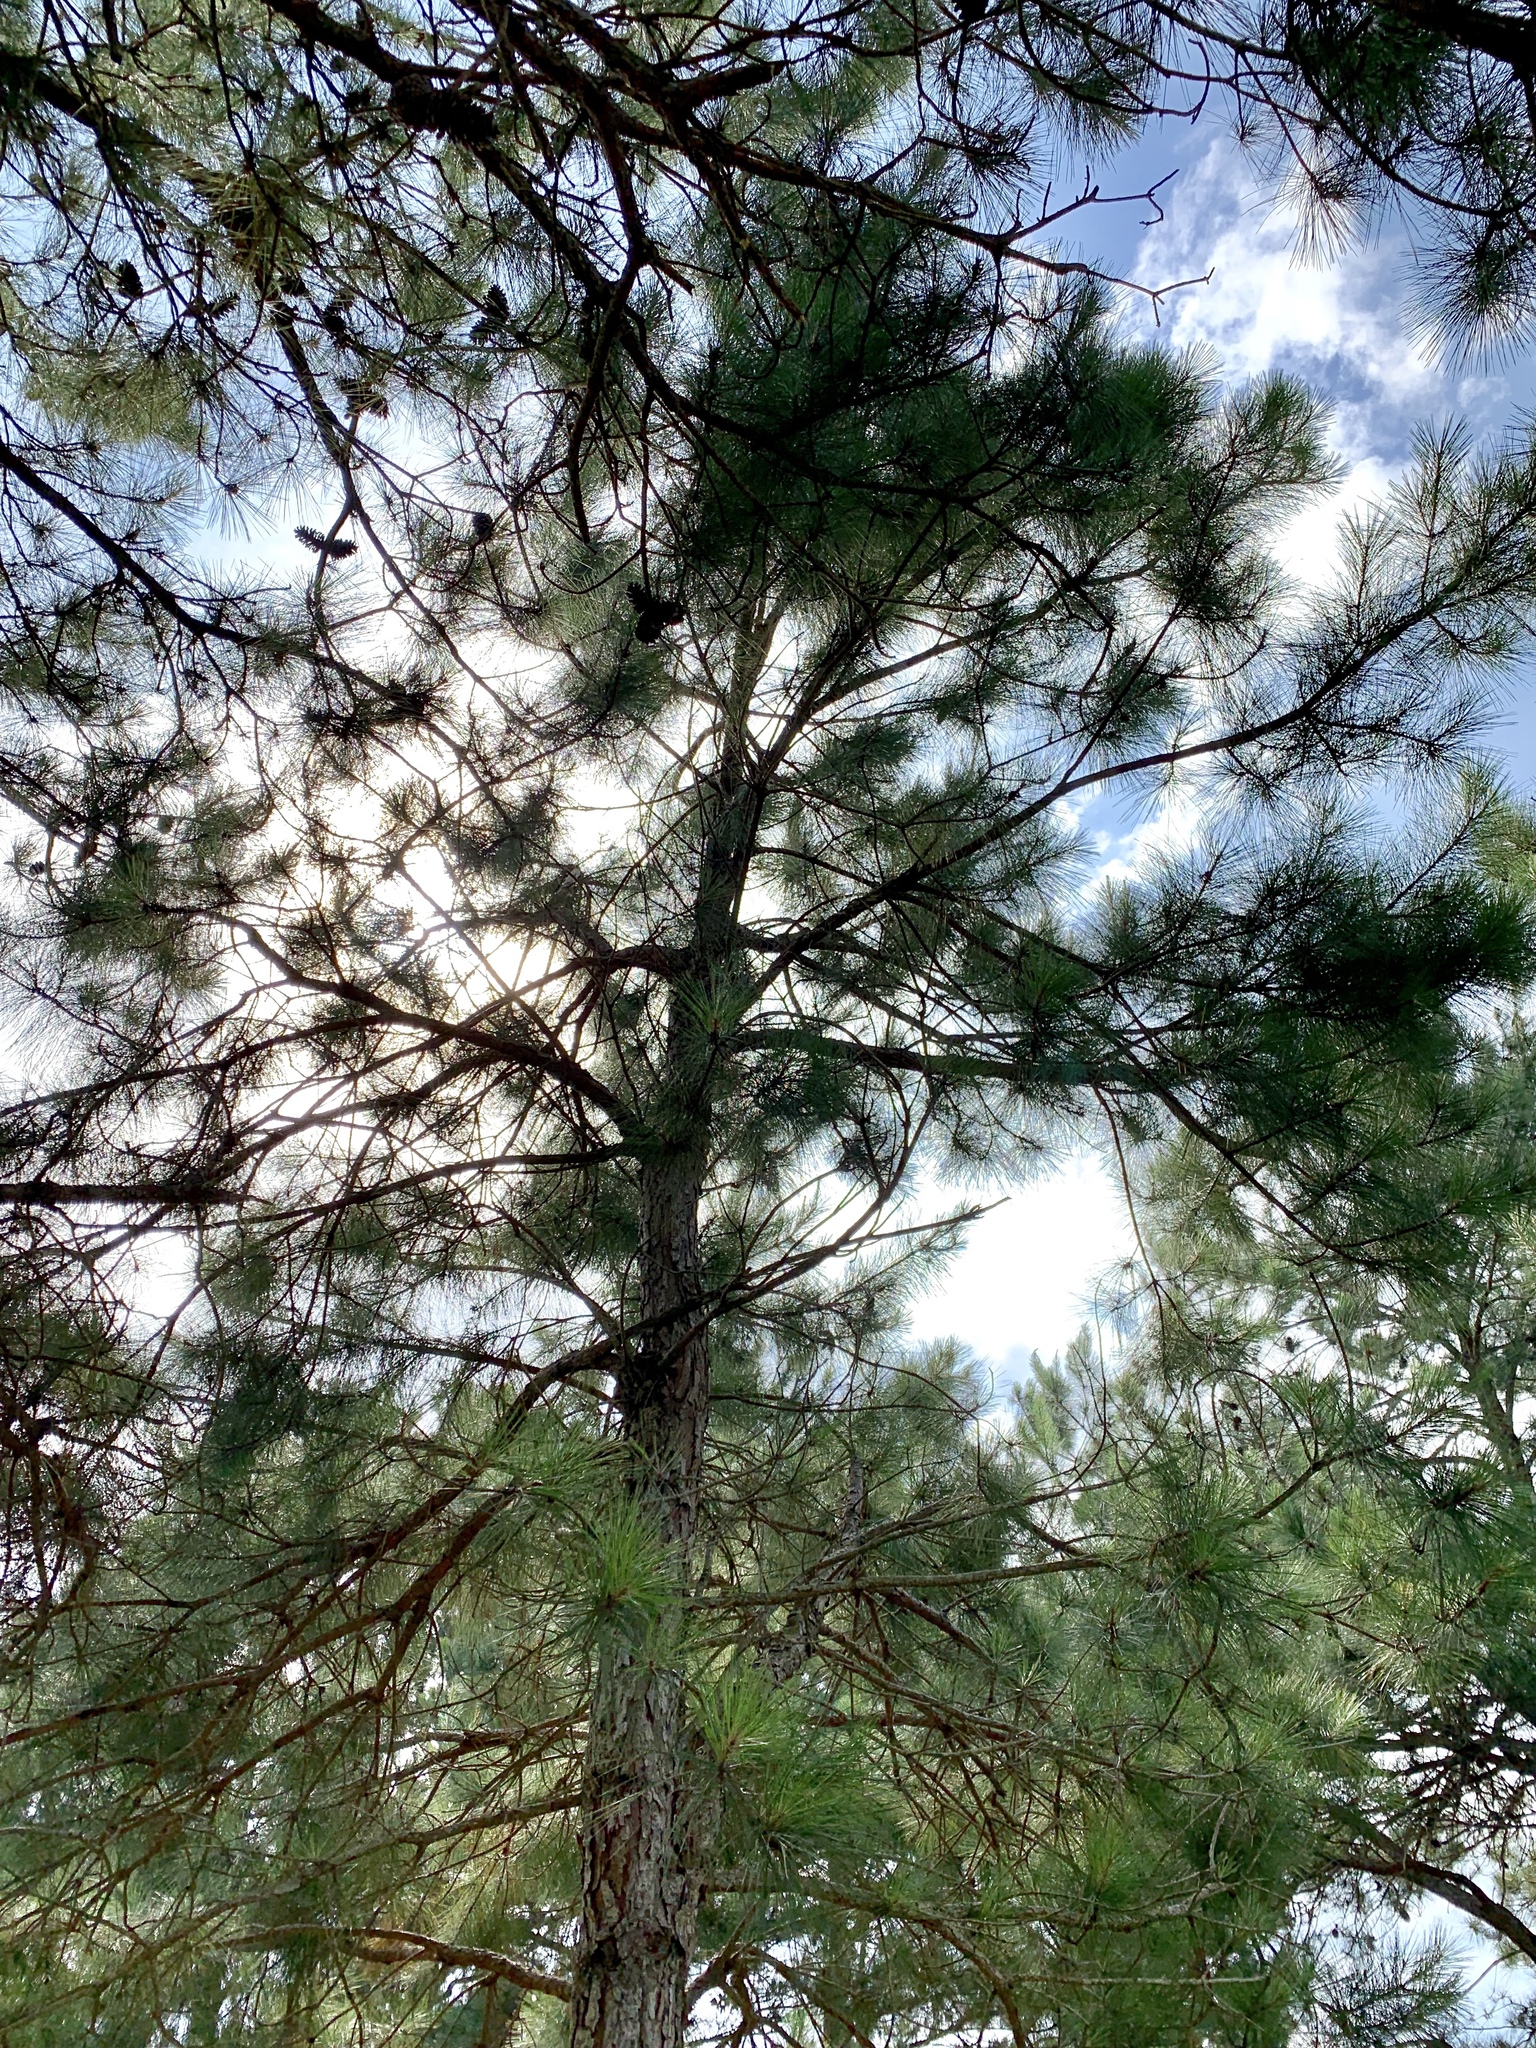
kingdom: Plantae
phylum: Tracheophyta
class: Pinopsida
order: Pinales
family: Pinaceae
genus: Pinus
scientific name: Pinus taeda
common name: Loblolly pine
